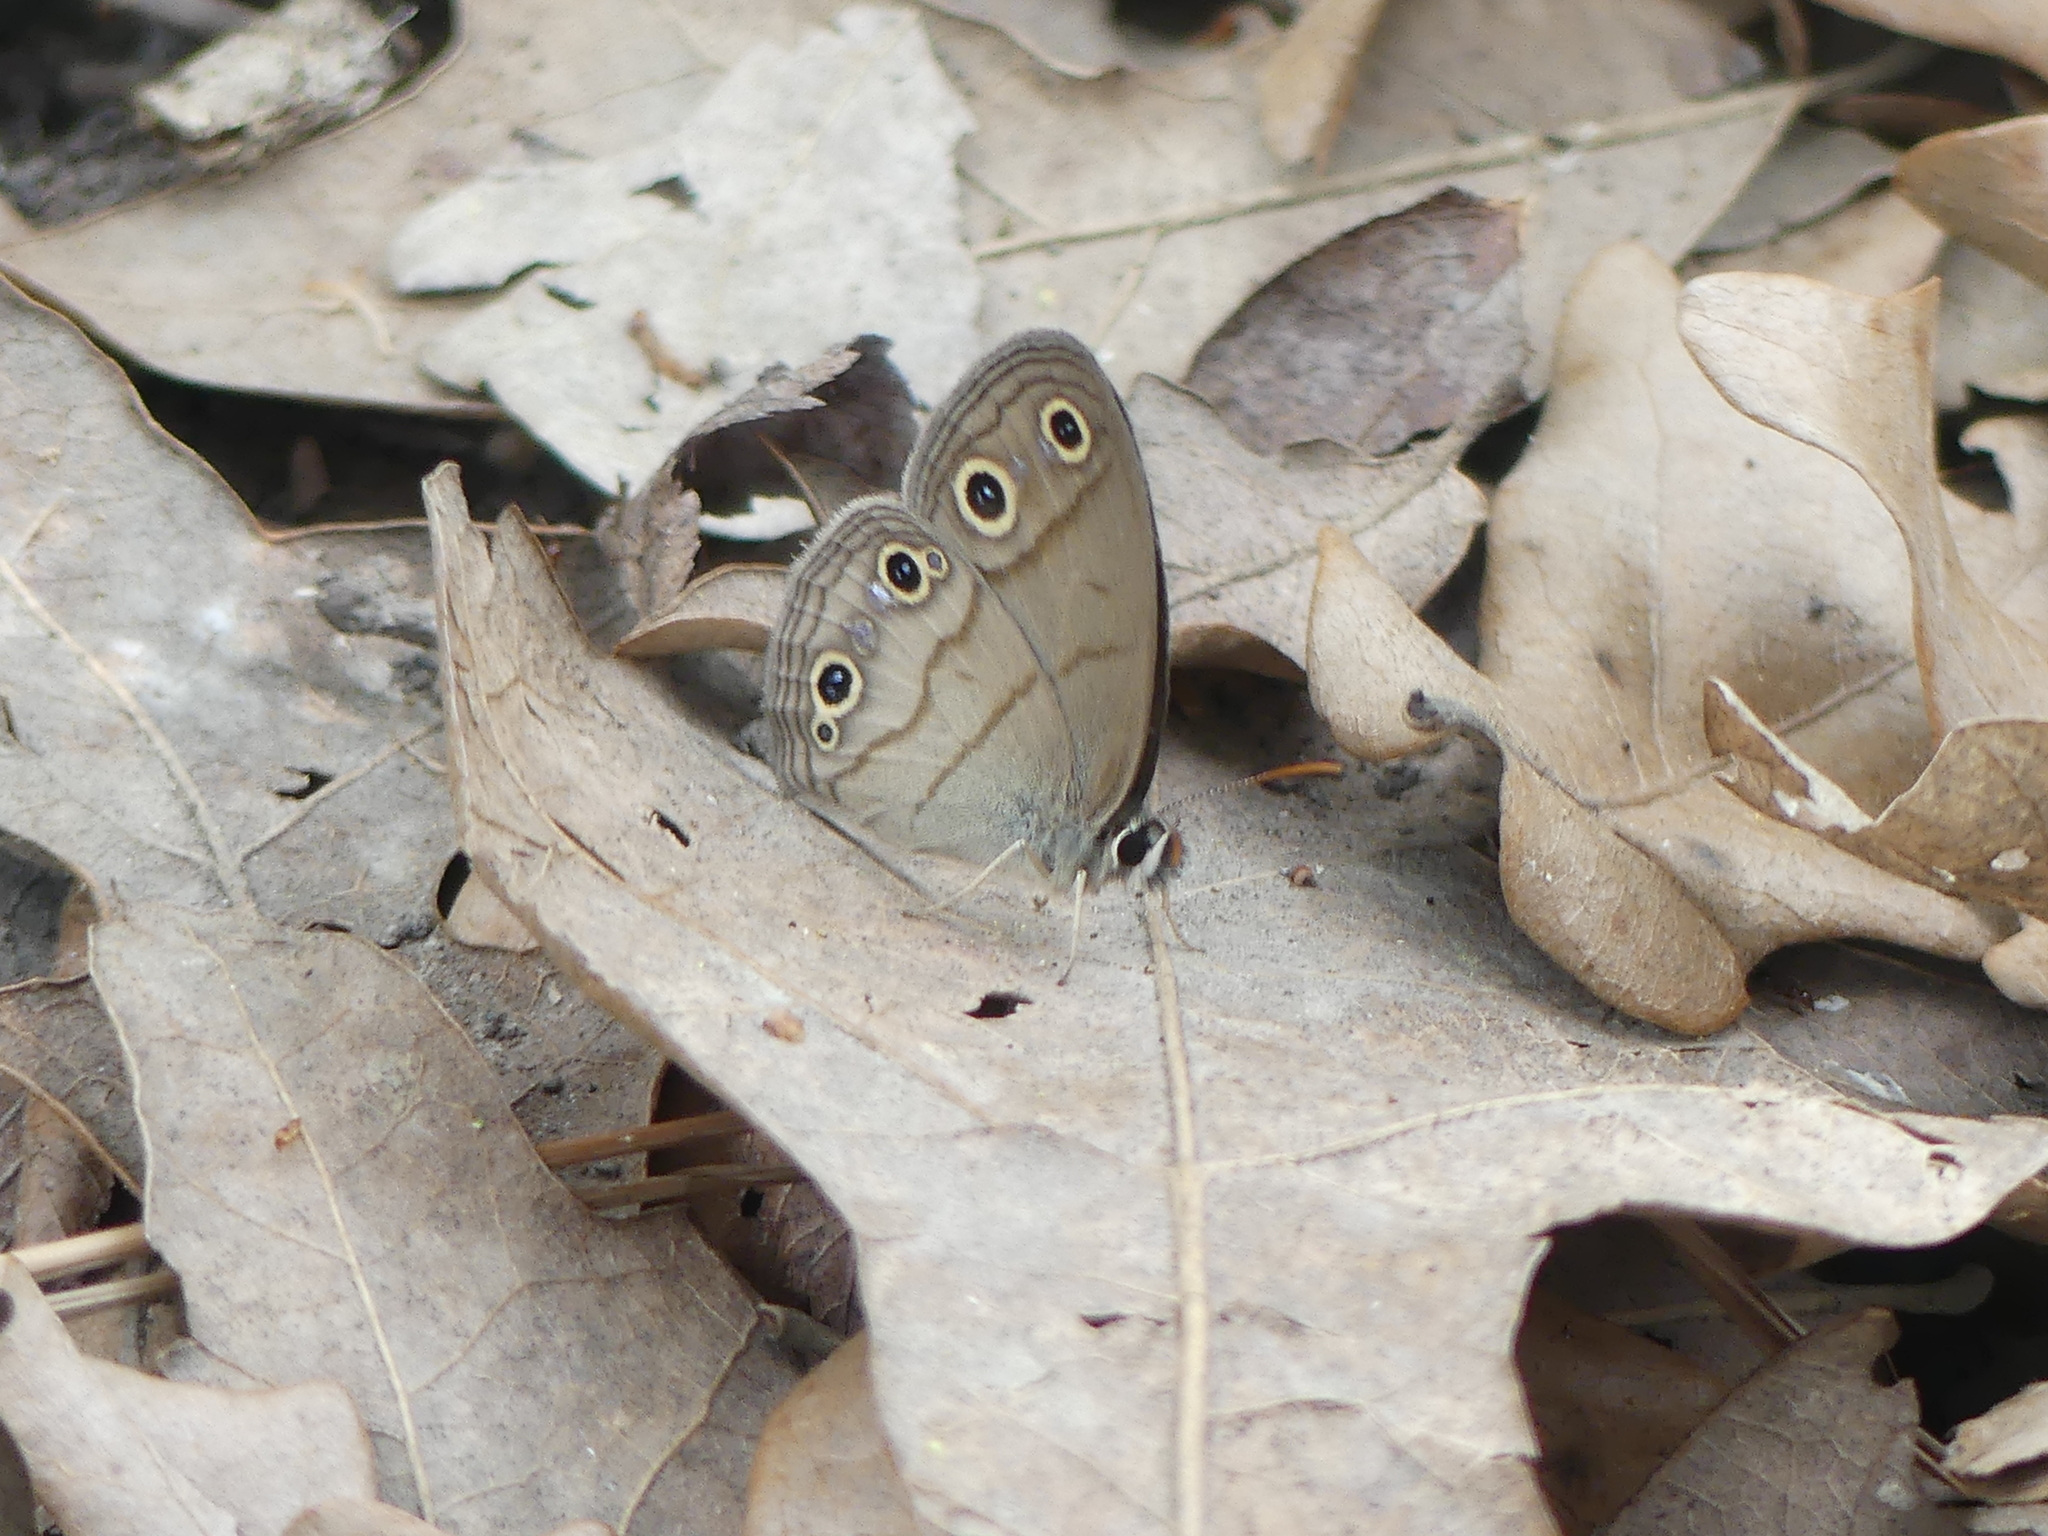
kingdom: Animalia
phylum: Arthropoda
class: Insecta
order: Lepidoptera
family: Nymphalidae
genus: Euptychia
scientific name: Euptychia cymela
